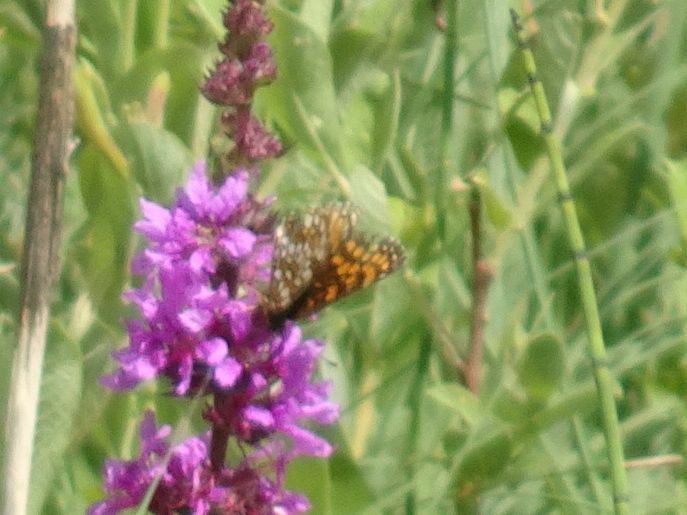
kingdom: Animalia
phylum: Arthropoda
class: Insecta
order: Lepidoptera
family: Nymphalidae
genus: Melitaea
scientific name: Melitaea diamina
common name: False heath fritillary
